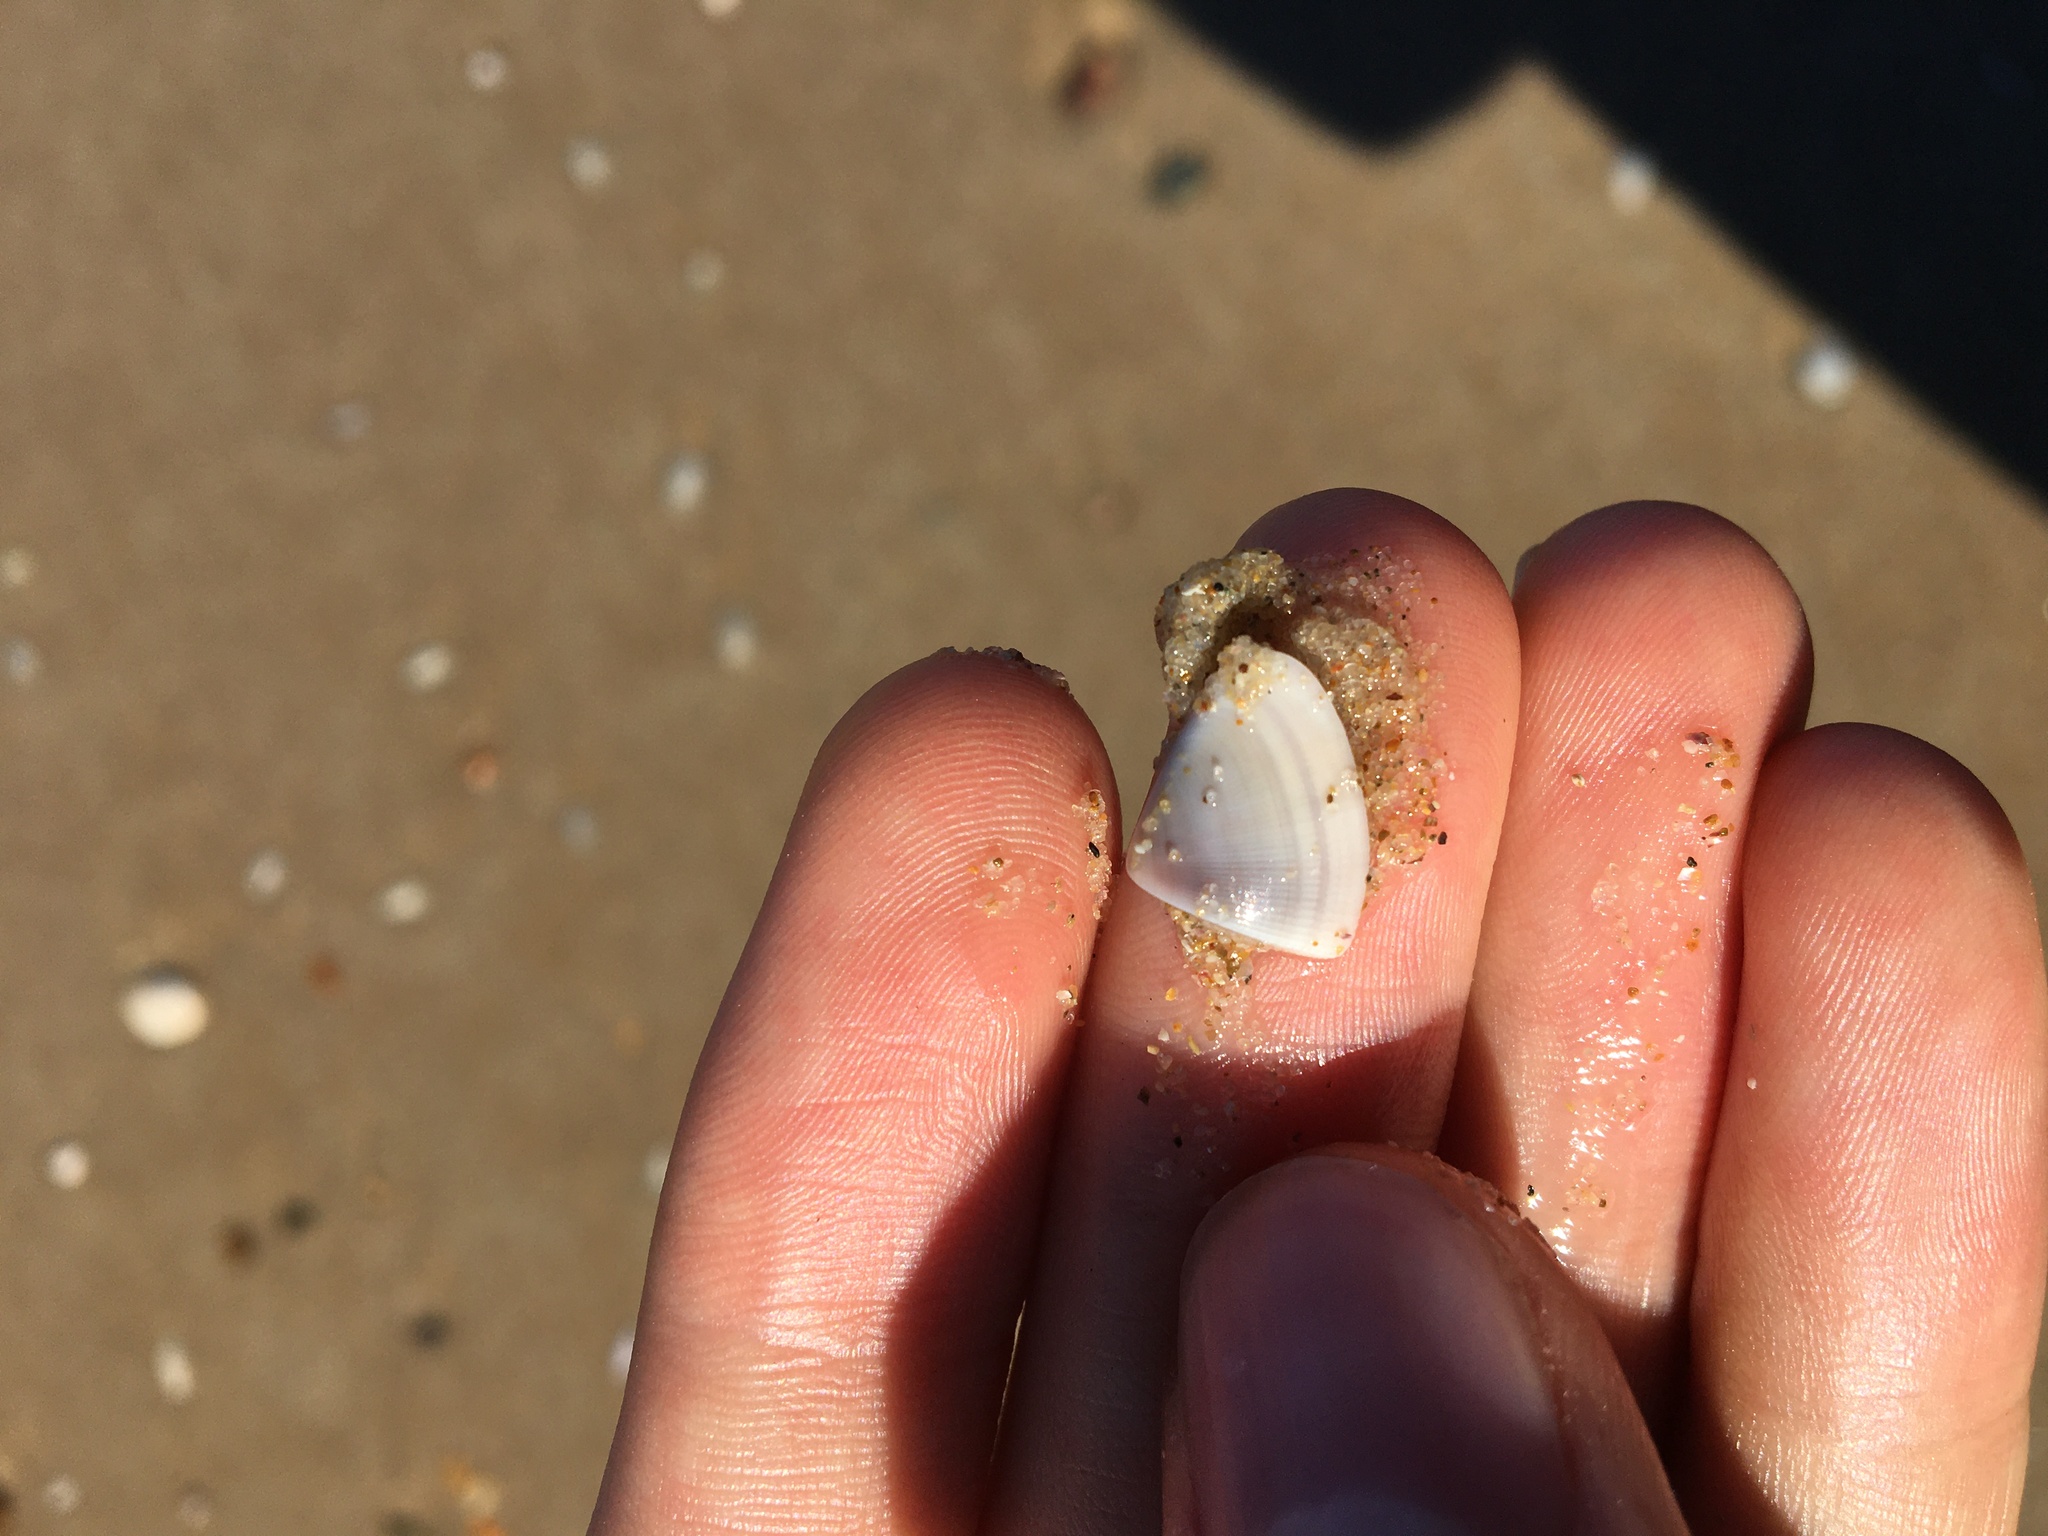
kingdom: Animalia
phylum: Mollusca
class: Bivalvia
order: Cardiida
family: Donacidae
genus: Donax
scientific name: Donax brazieri
